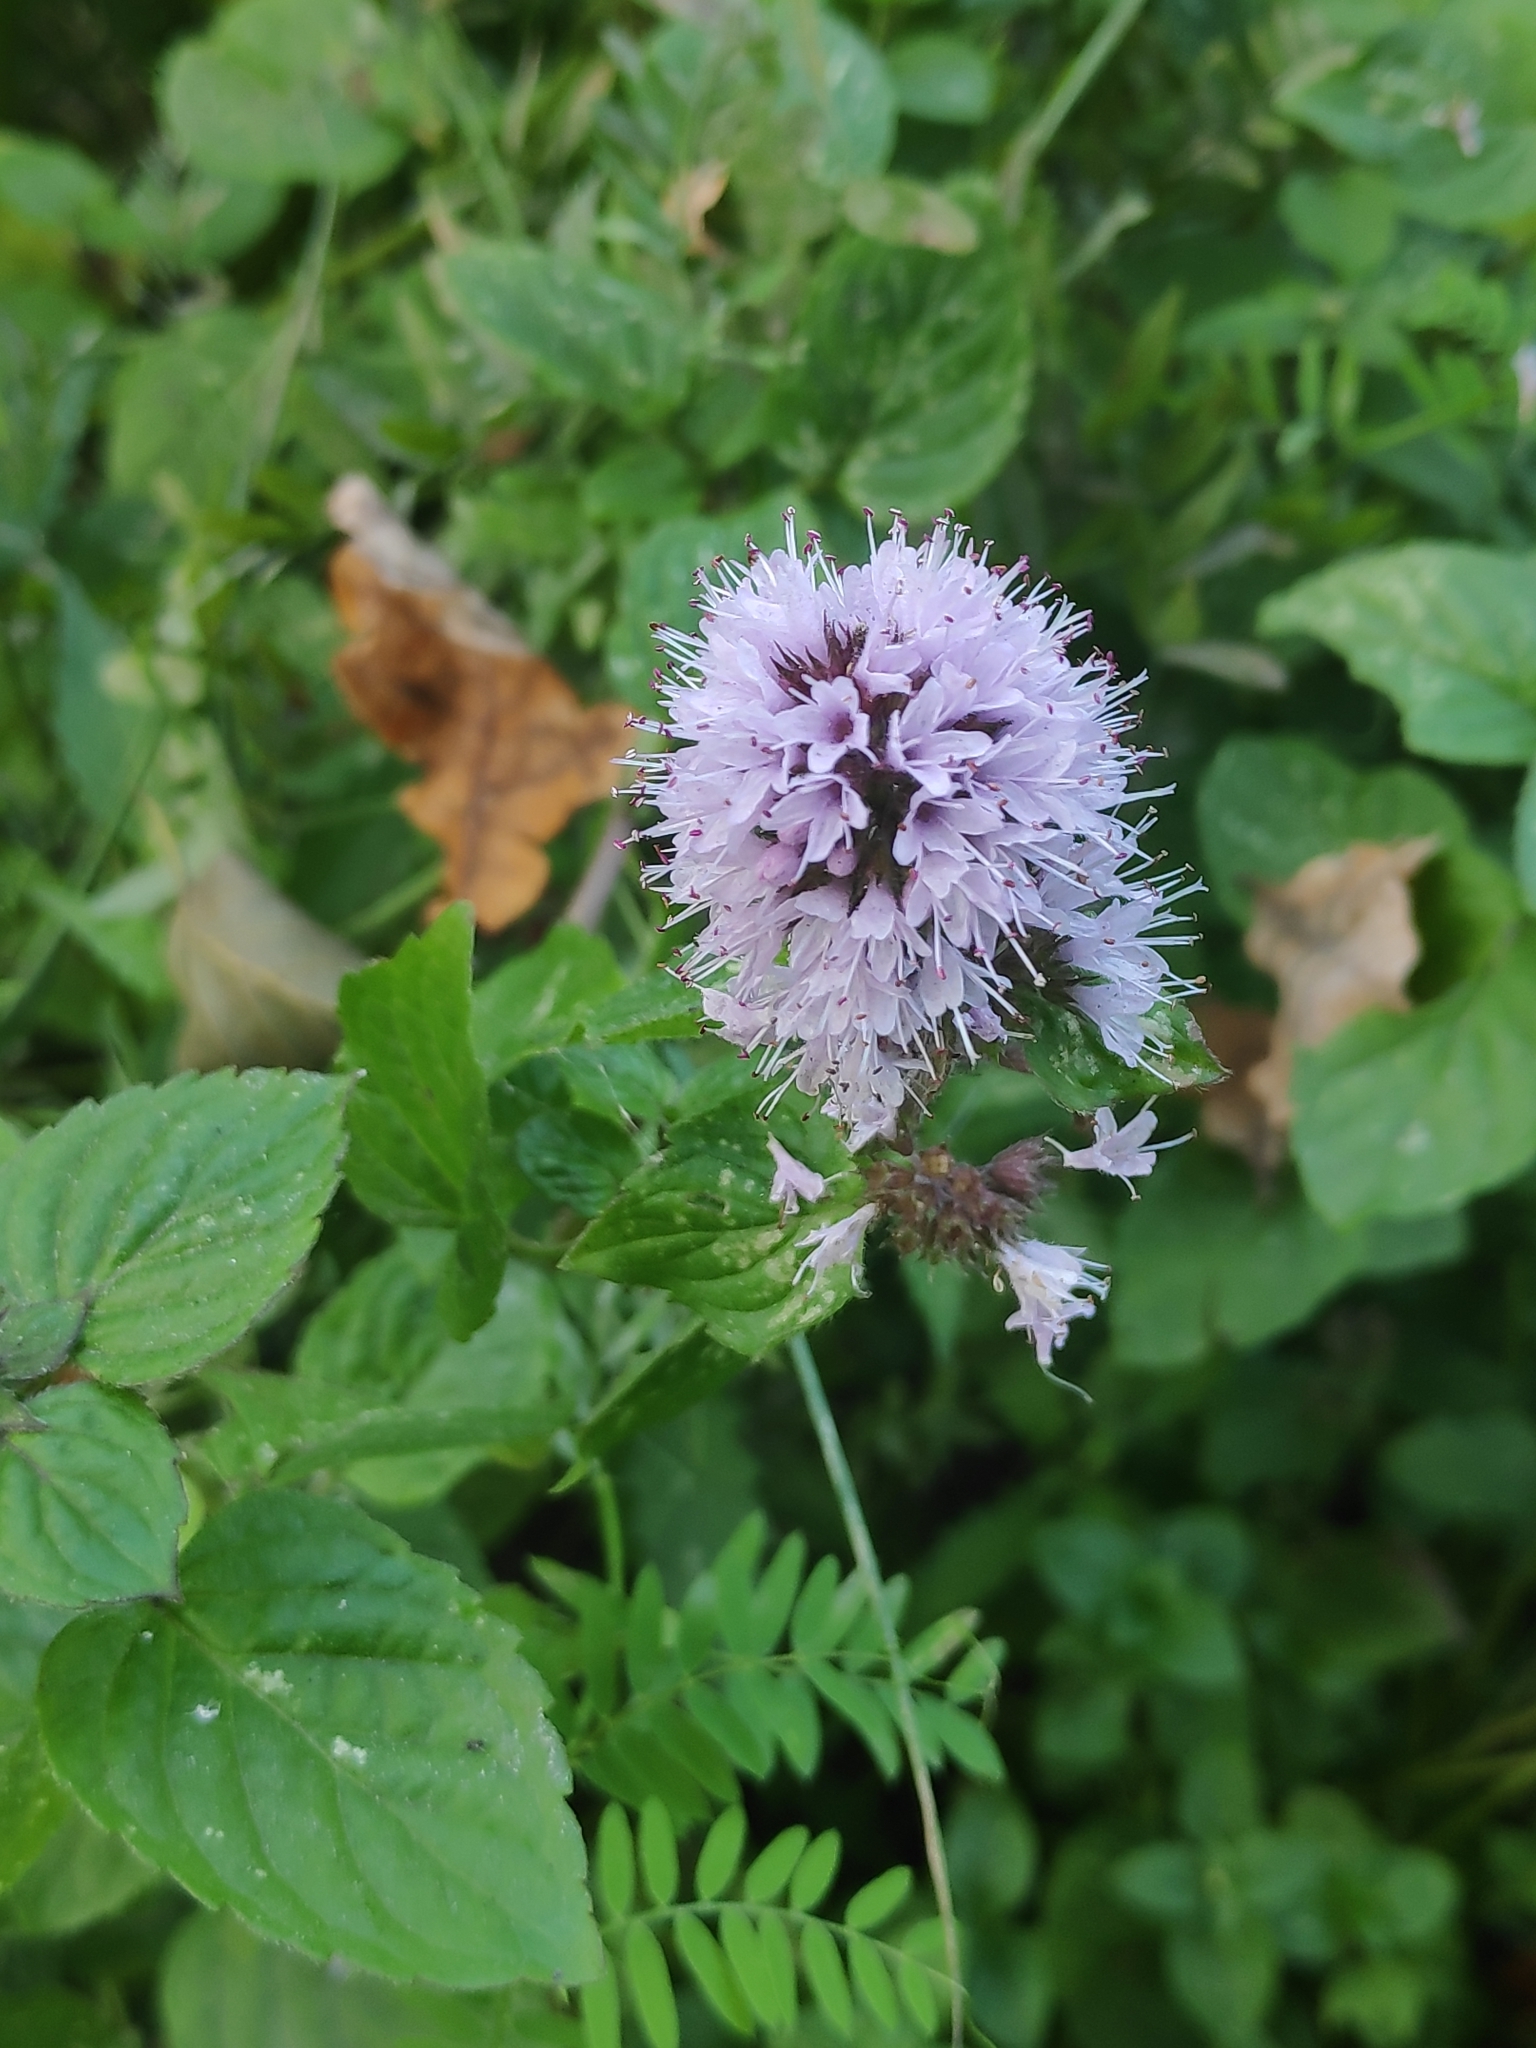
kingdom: Plantae
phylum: Tracheophyta
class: Magnoliopsida
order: Lamiales
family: Lamiaceae
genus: Mentha
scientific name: Mentha aquatica
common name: Water mint
